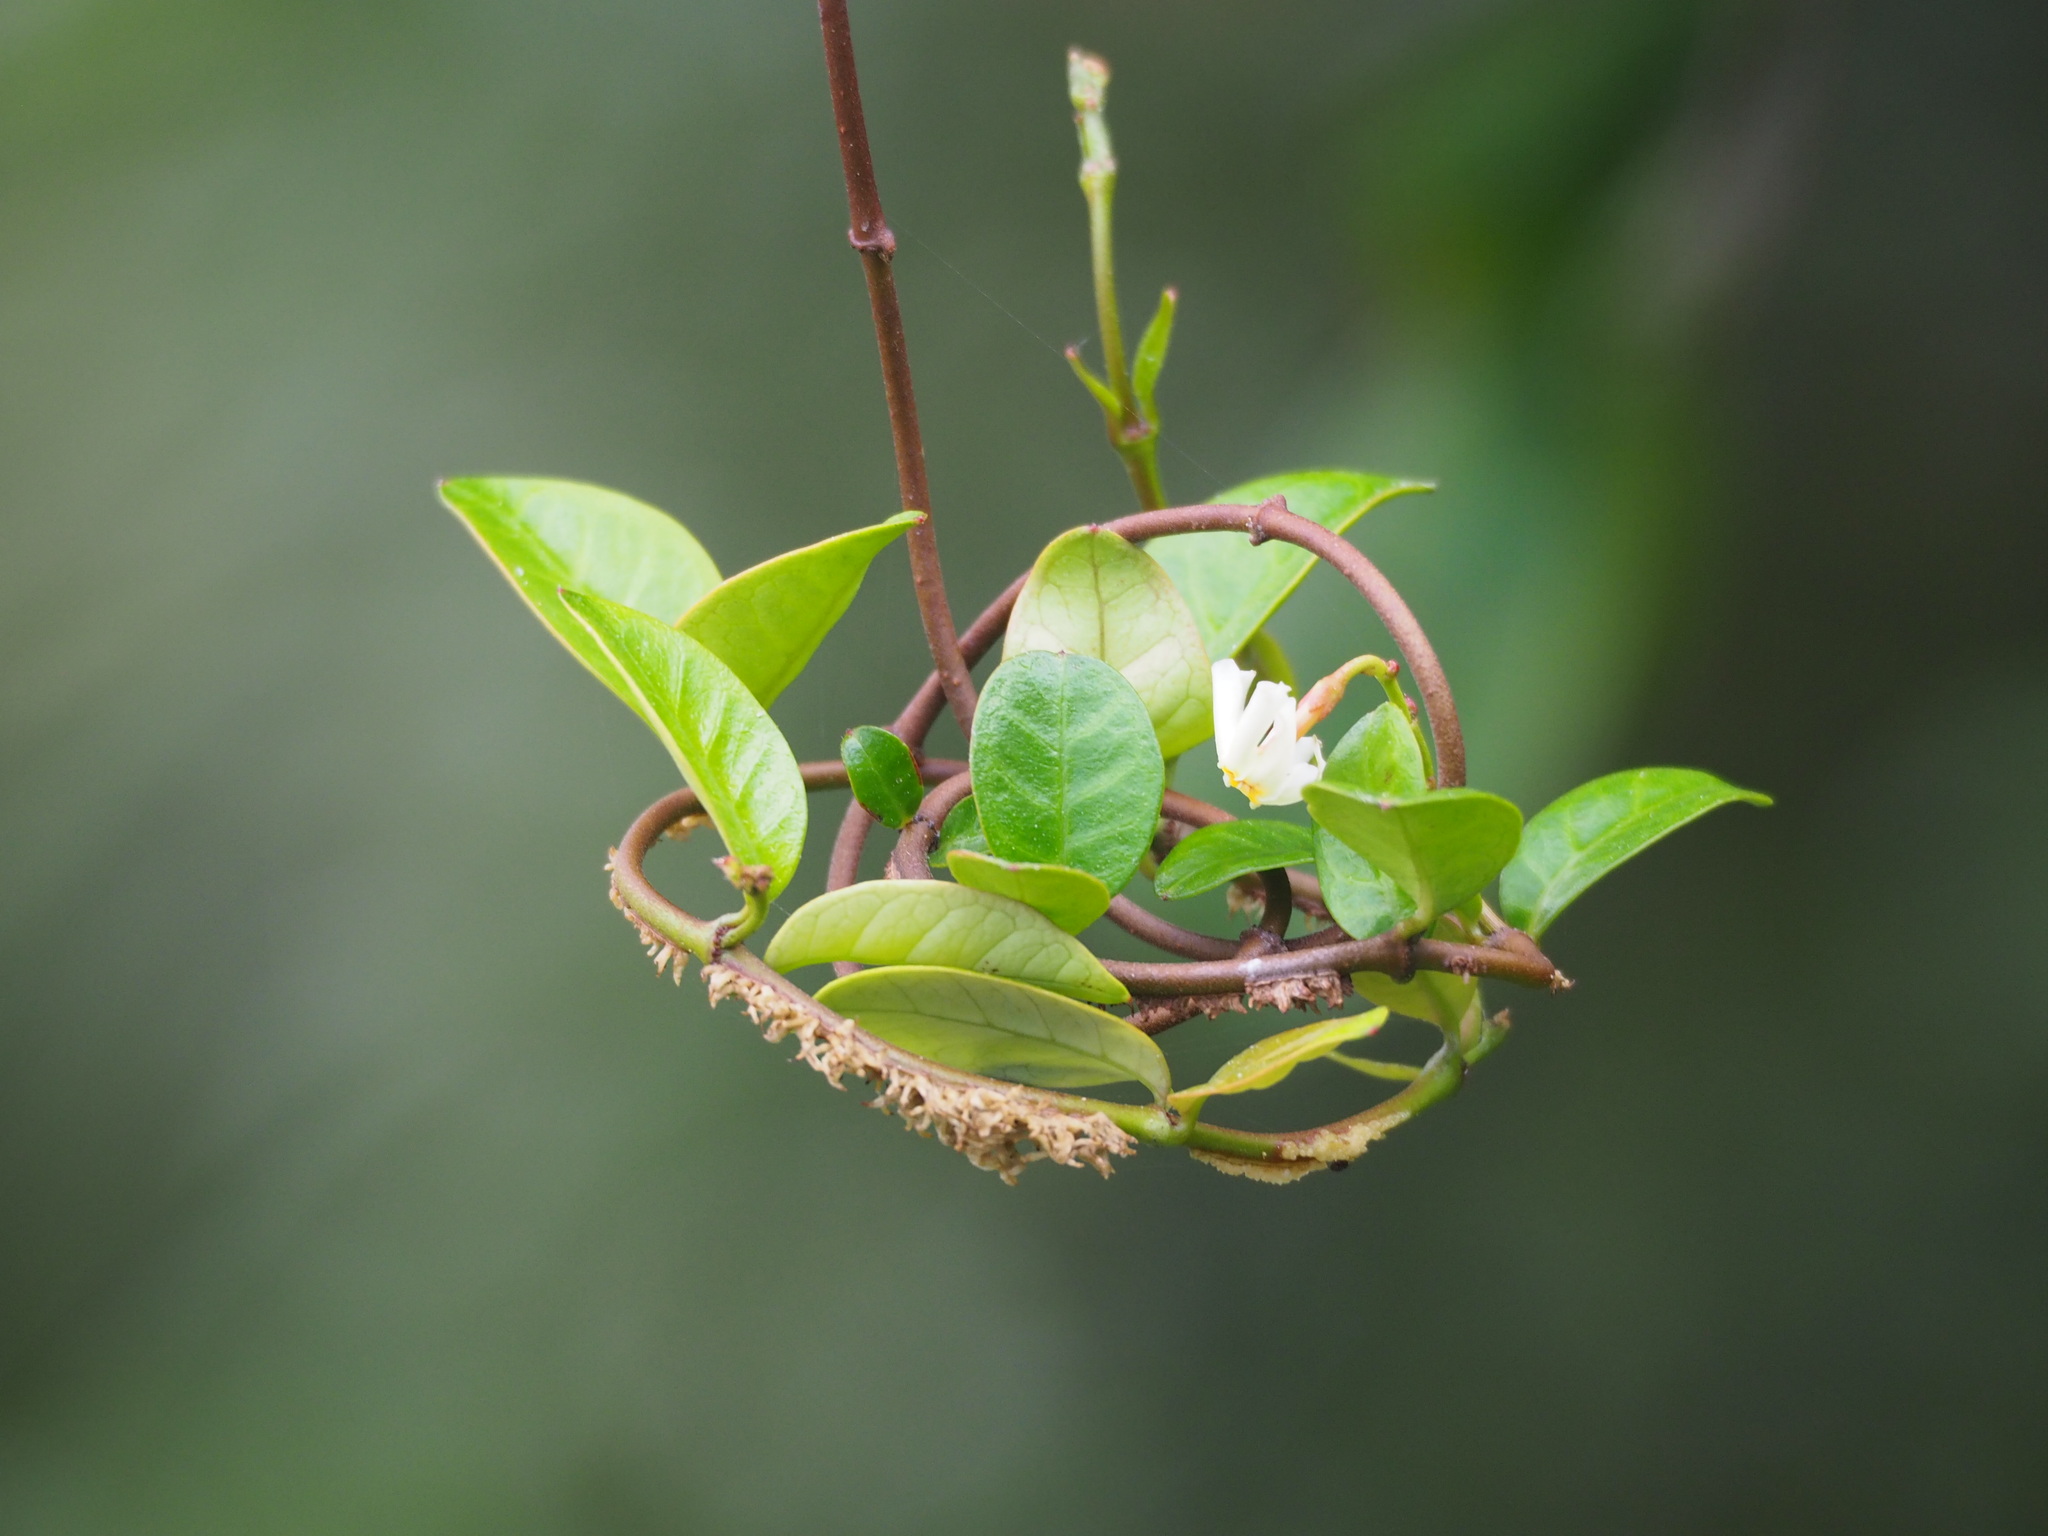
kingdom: Plantae
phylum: Tracheophyta
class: Magnoliopsida
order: Gentianales
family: Apocynaceae
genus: Trachelospermum
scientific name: Trachelospermum asiaticum
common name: Asiatic jasmine
